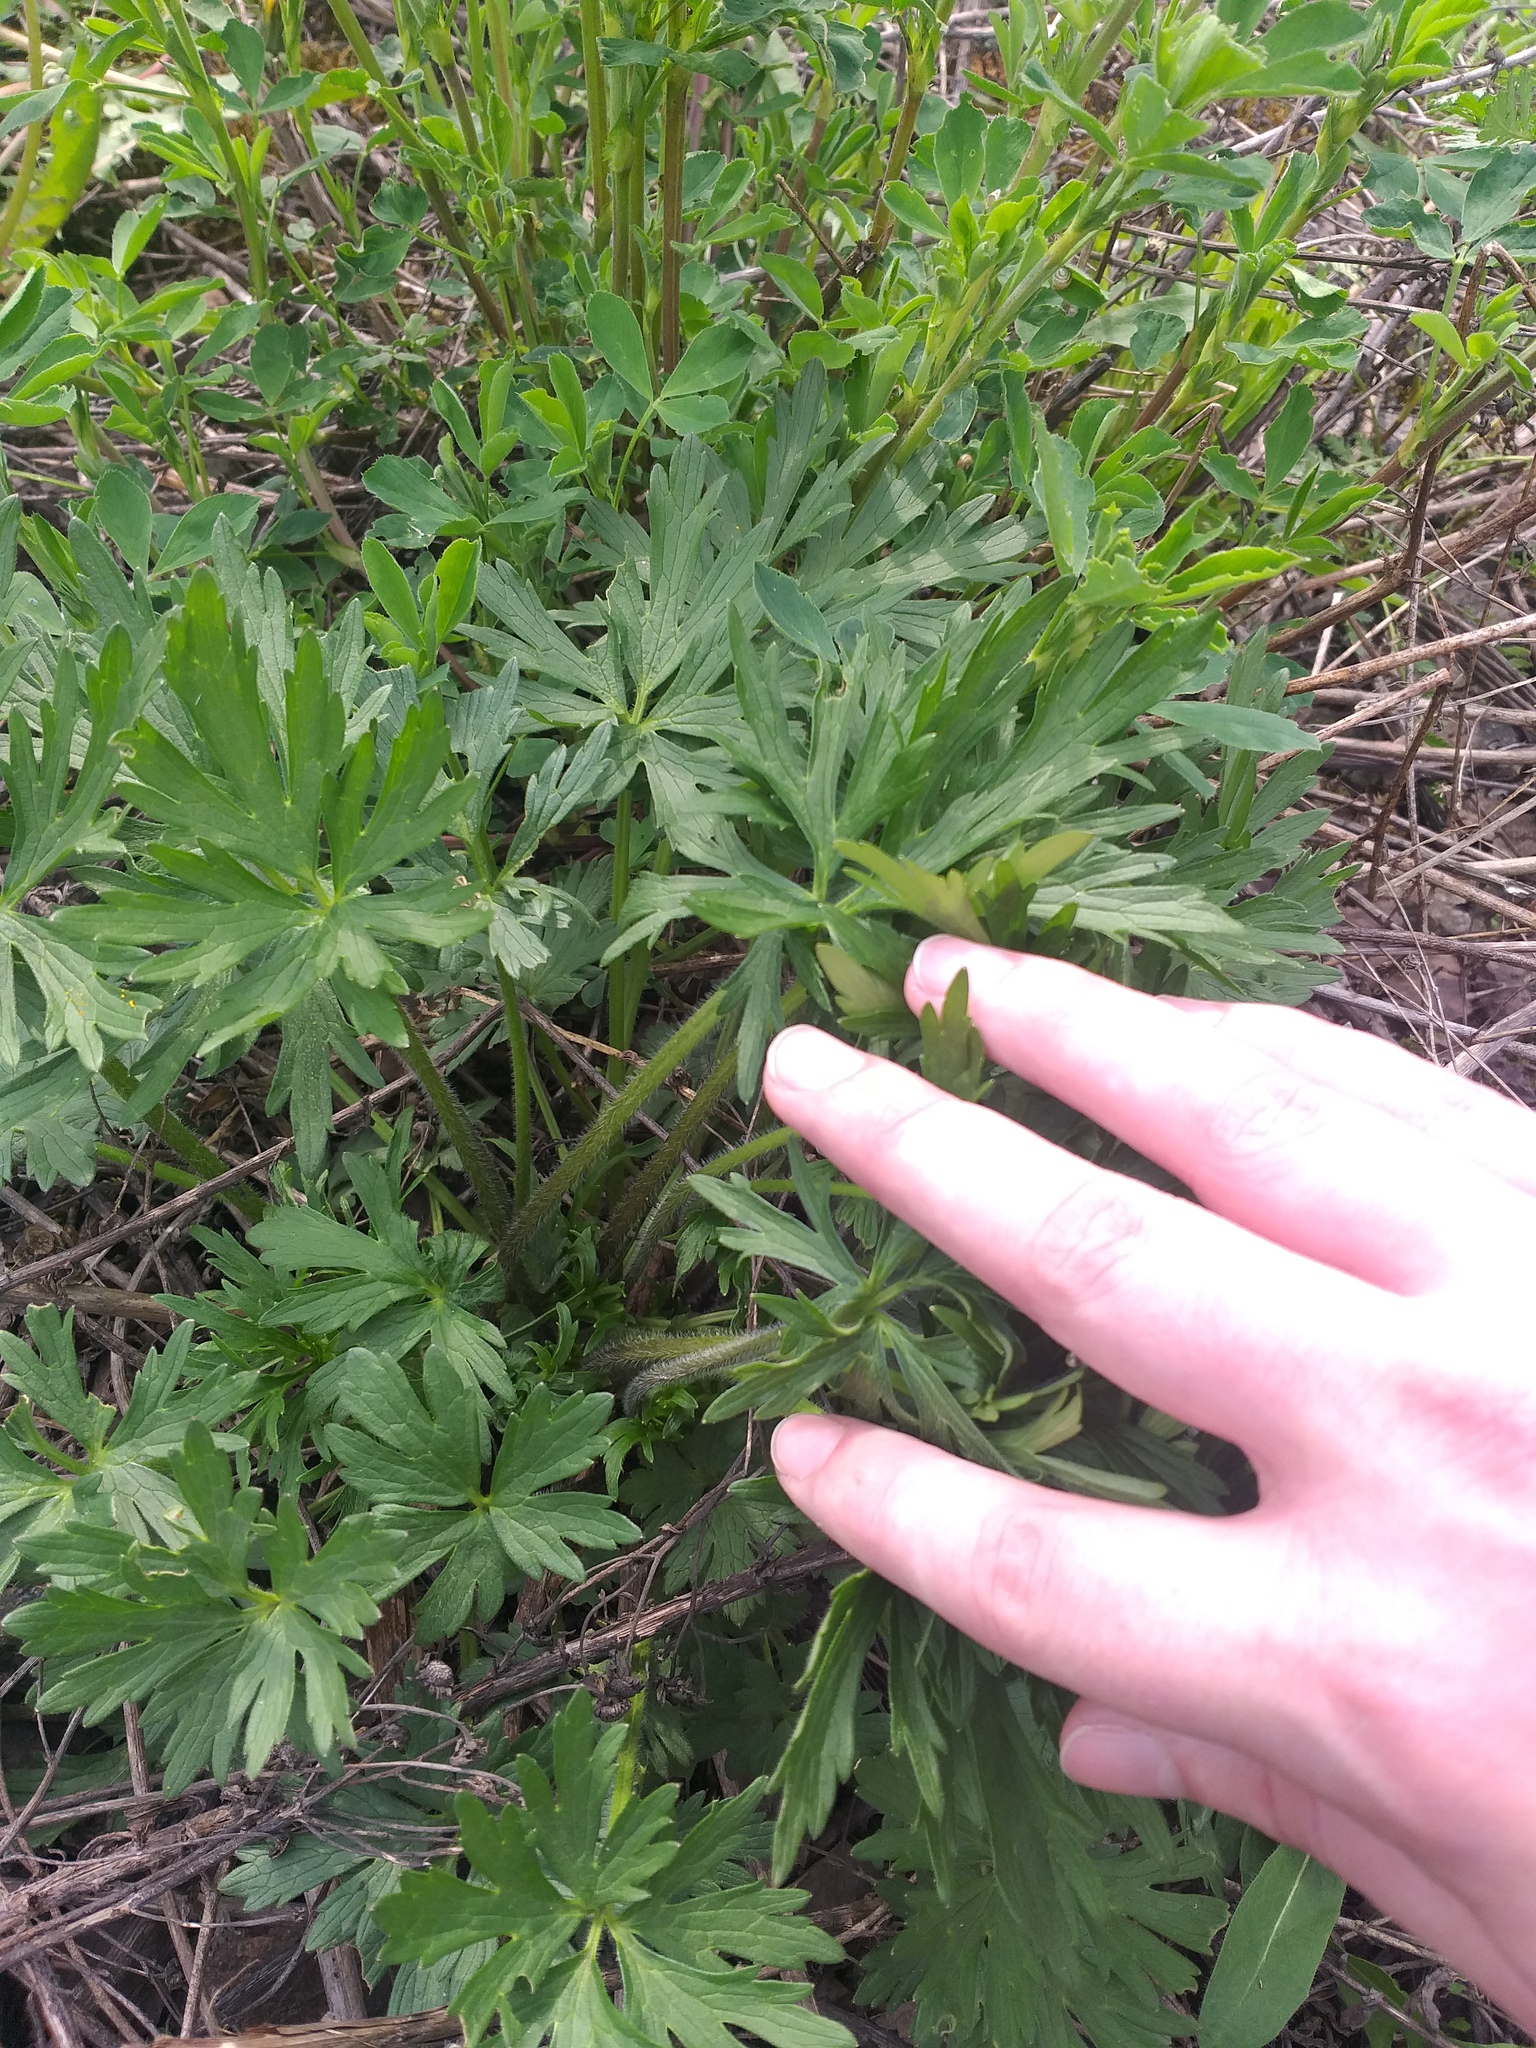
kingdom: Plantae
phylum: Tracheophyta
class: Magnoliopsida
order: Ranunculales
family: Ranunculaceae
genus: Ranunculus
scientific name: Ranunculus polyanthemos
